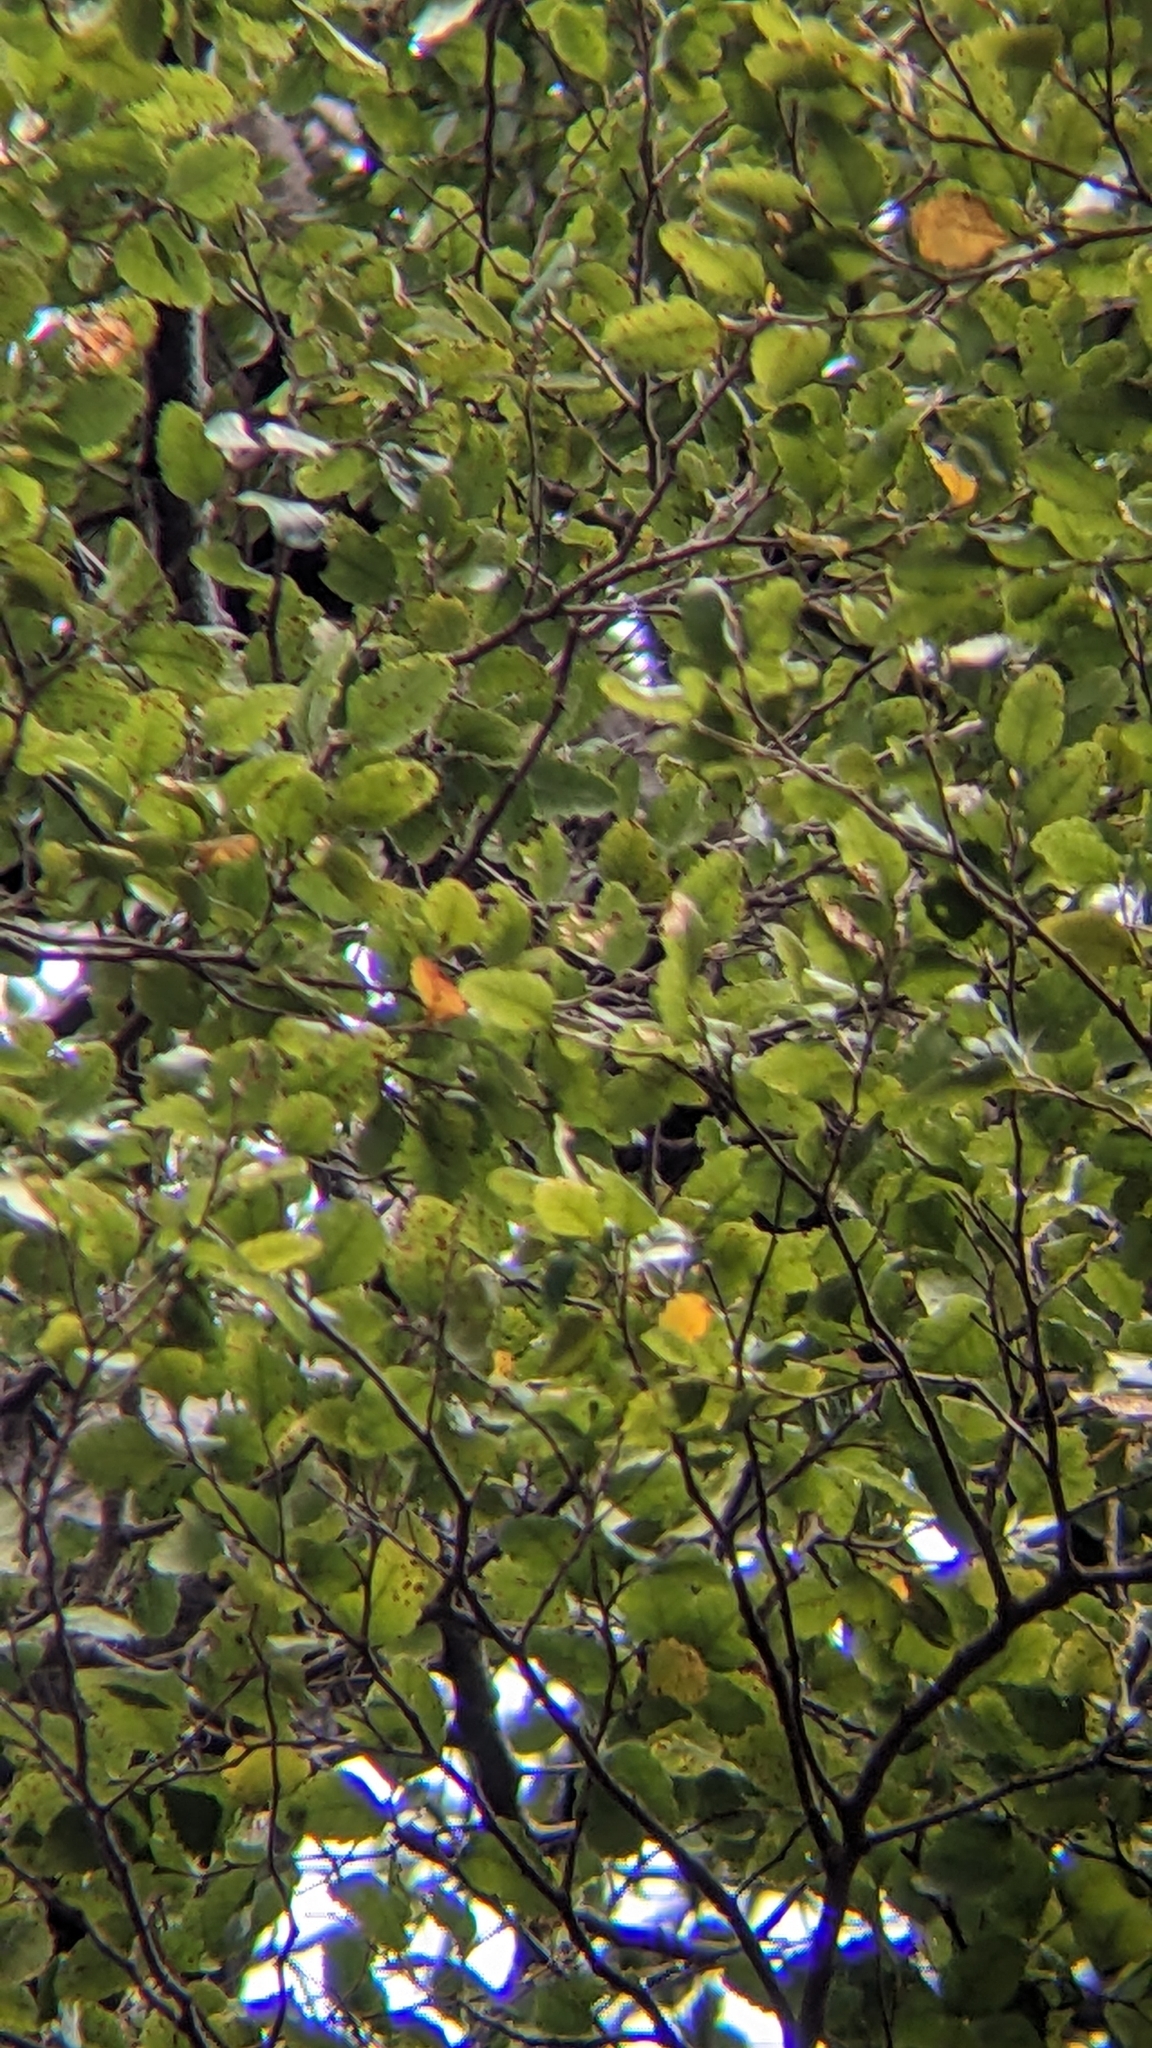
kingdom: Plantae
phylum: Tracheophyta
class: Magnoliopsida
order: Fagales
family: Nothofagaceae
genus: Nothofagus
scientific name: Nothofagus truncata
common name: Hard beech
